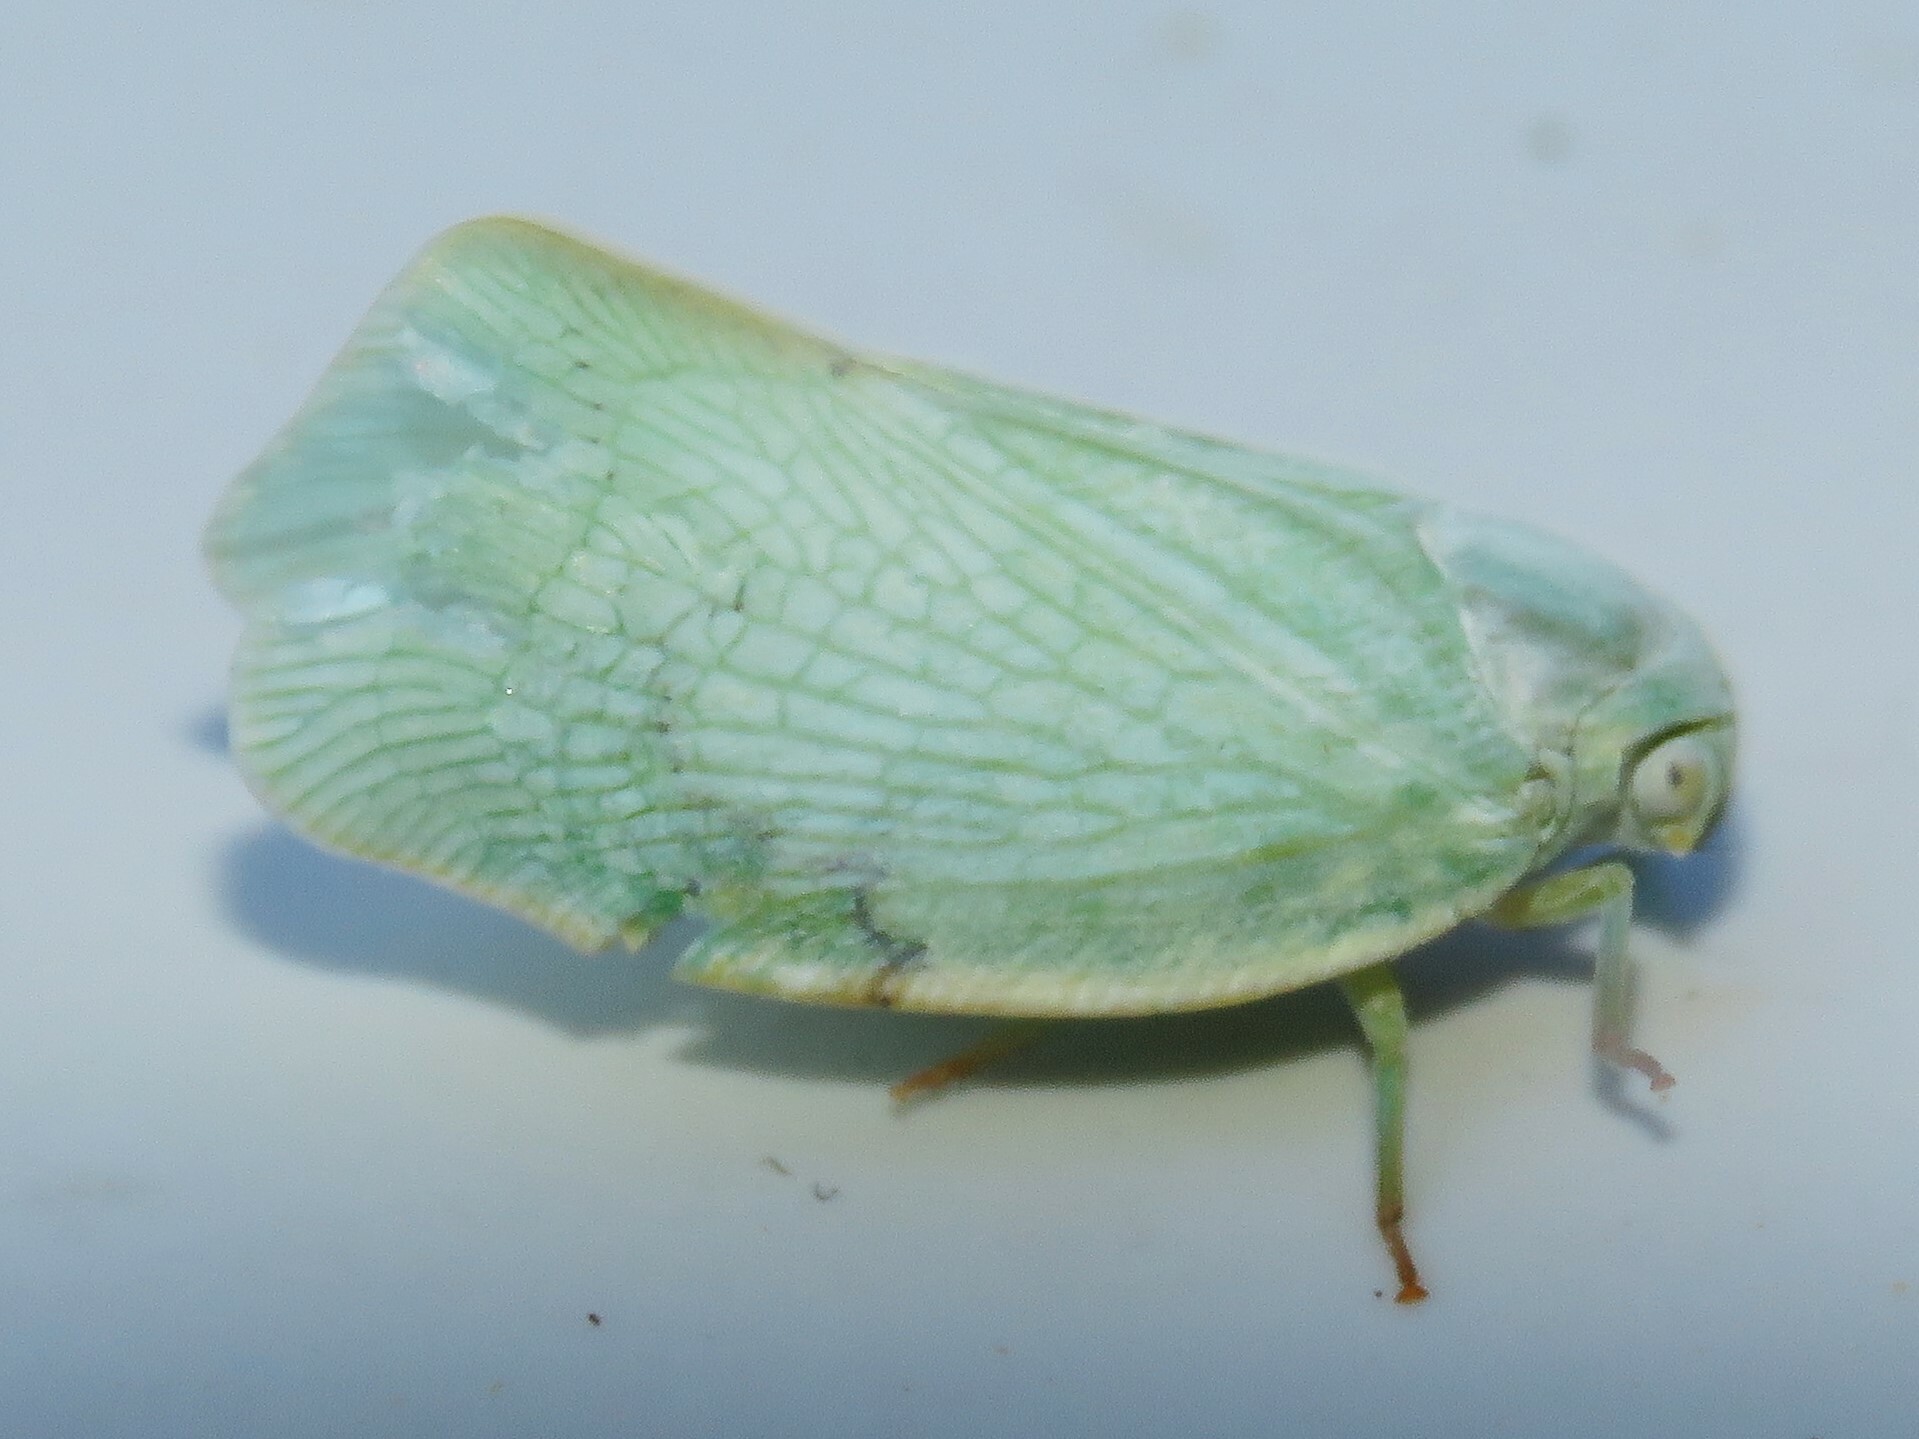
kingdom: Animalia
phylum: Arthropoda
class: Insecta
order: Hemiptera
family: Flatidae
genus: Flatormenis
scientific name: Flatormenis proxima
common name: Northern flatid planthopper
